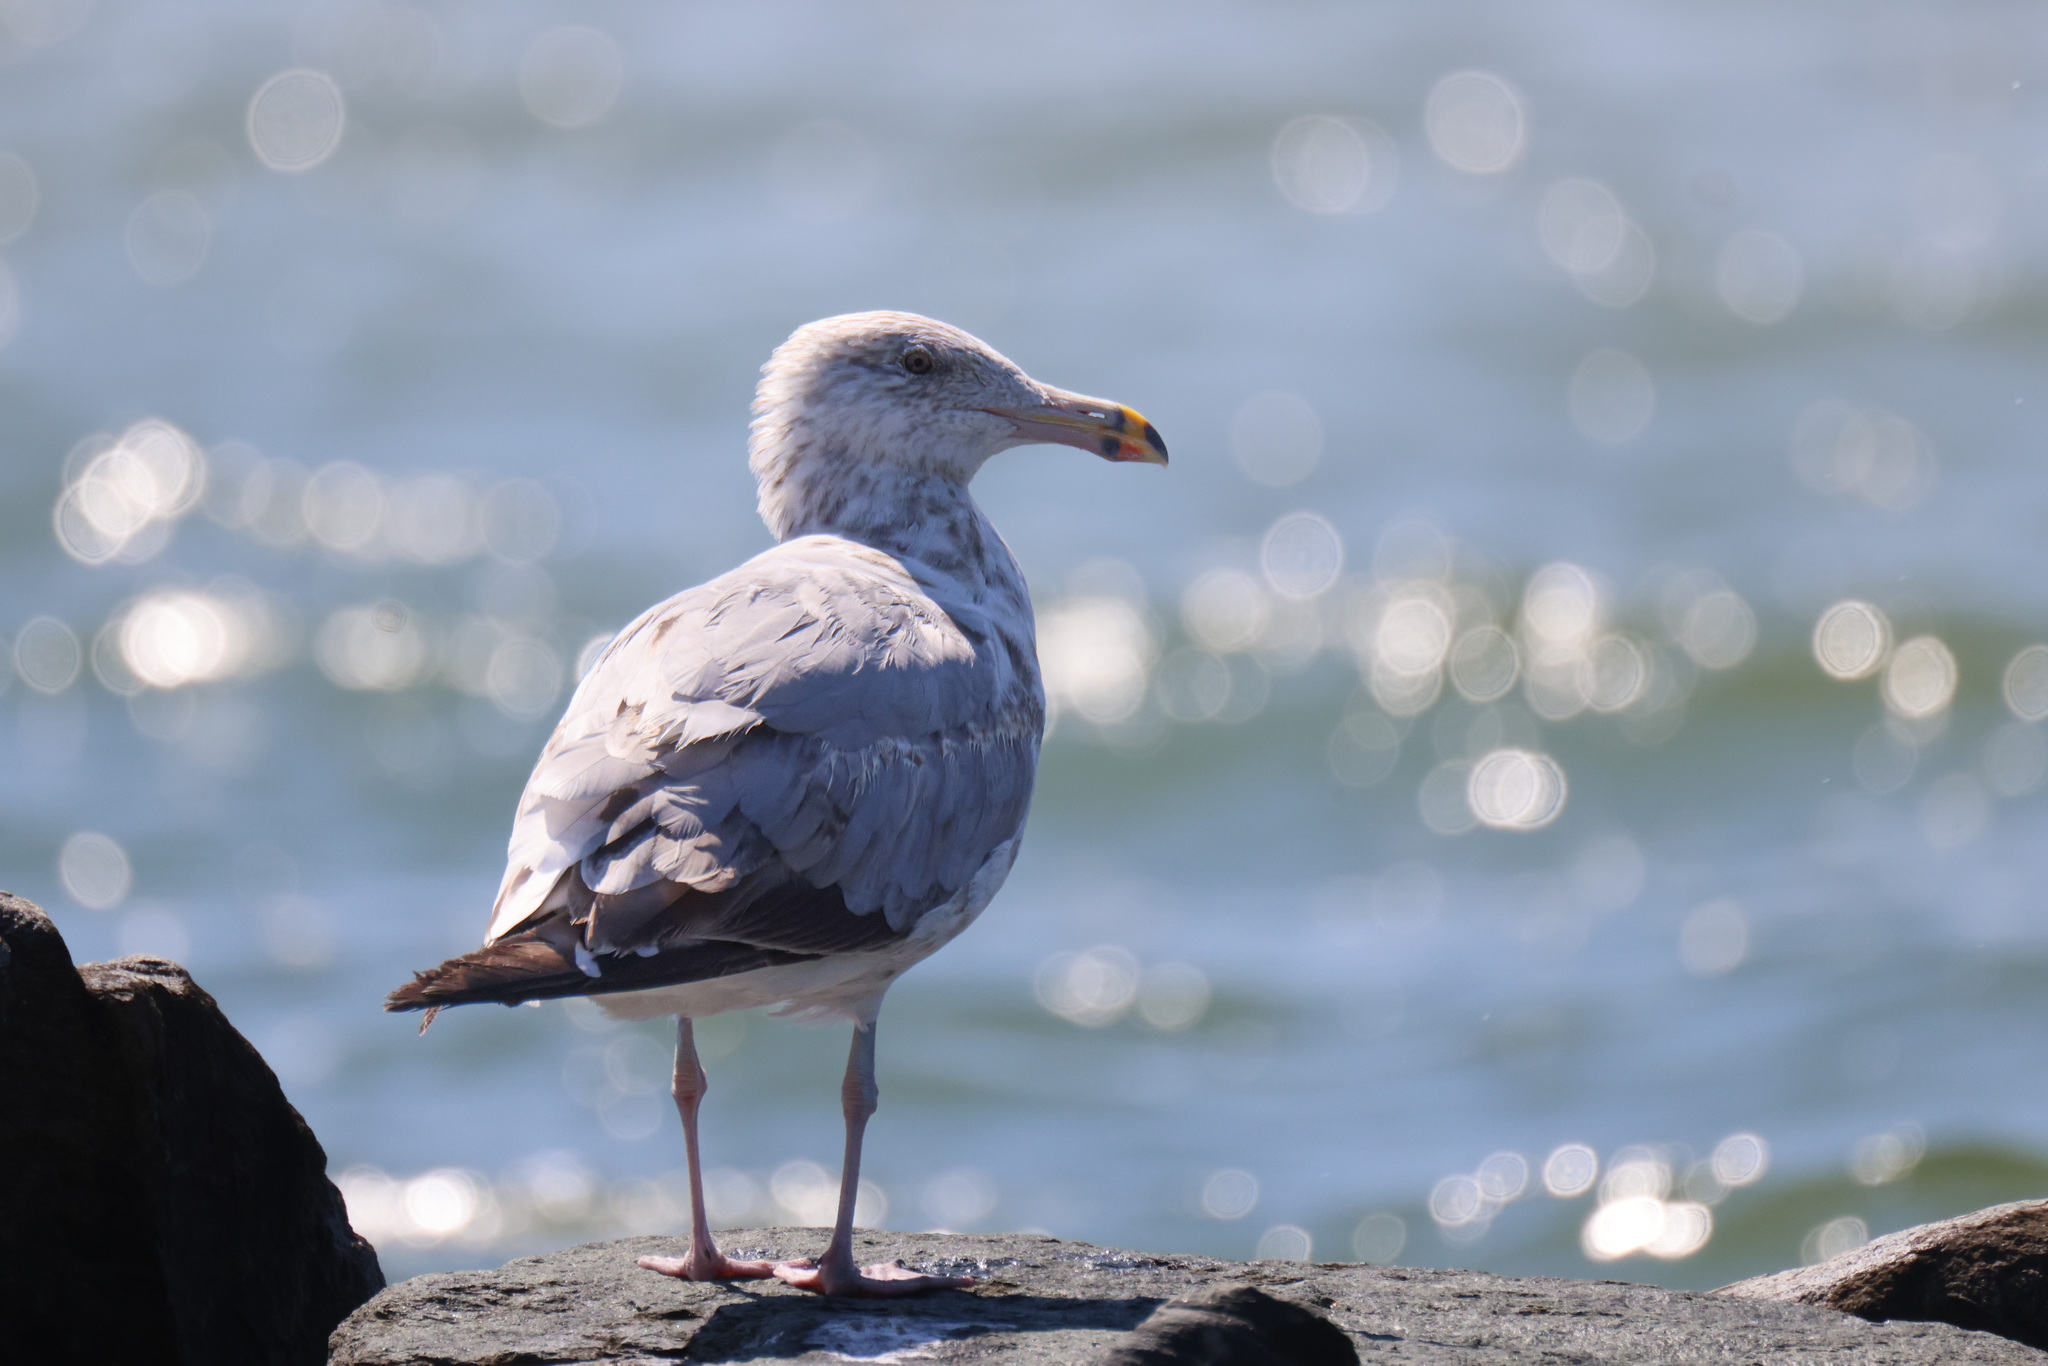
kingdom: Animalia
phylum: Chordata
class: Aves
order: Charadriiformes
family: Laridae
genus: Larus
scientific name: Larus argentatus
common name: Herring gull
